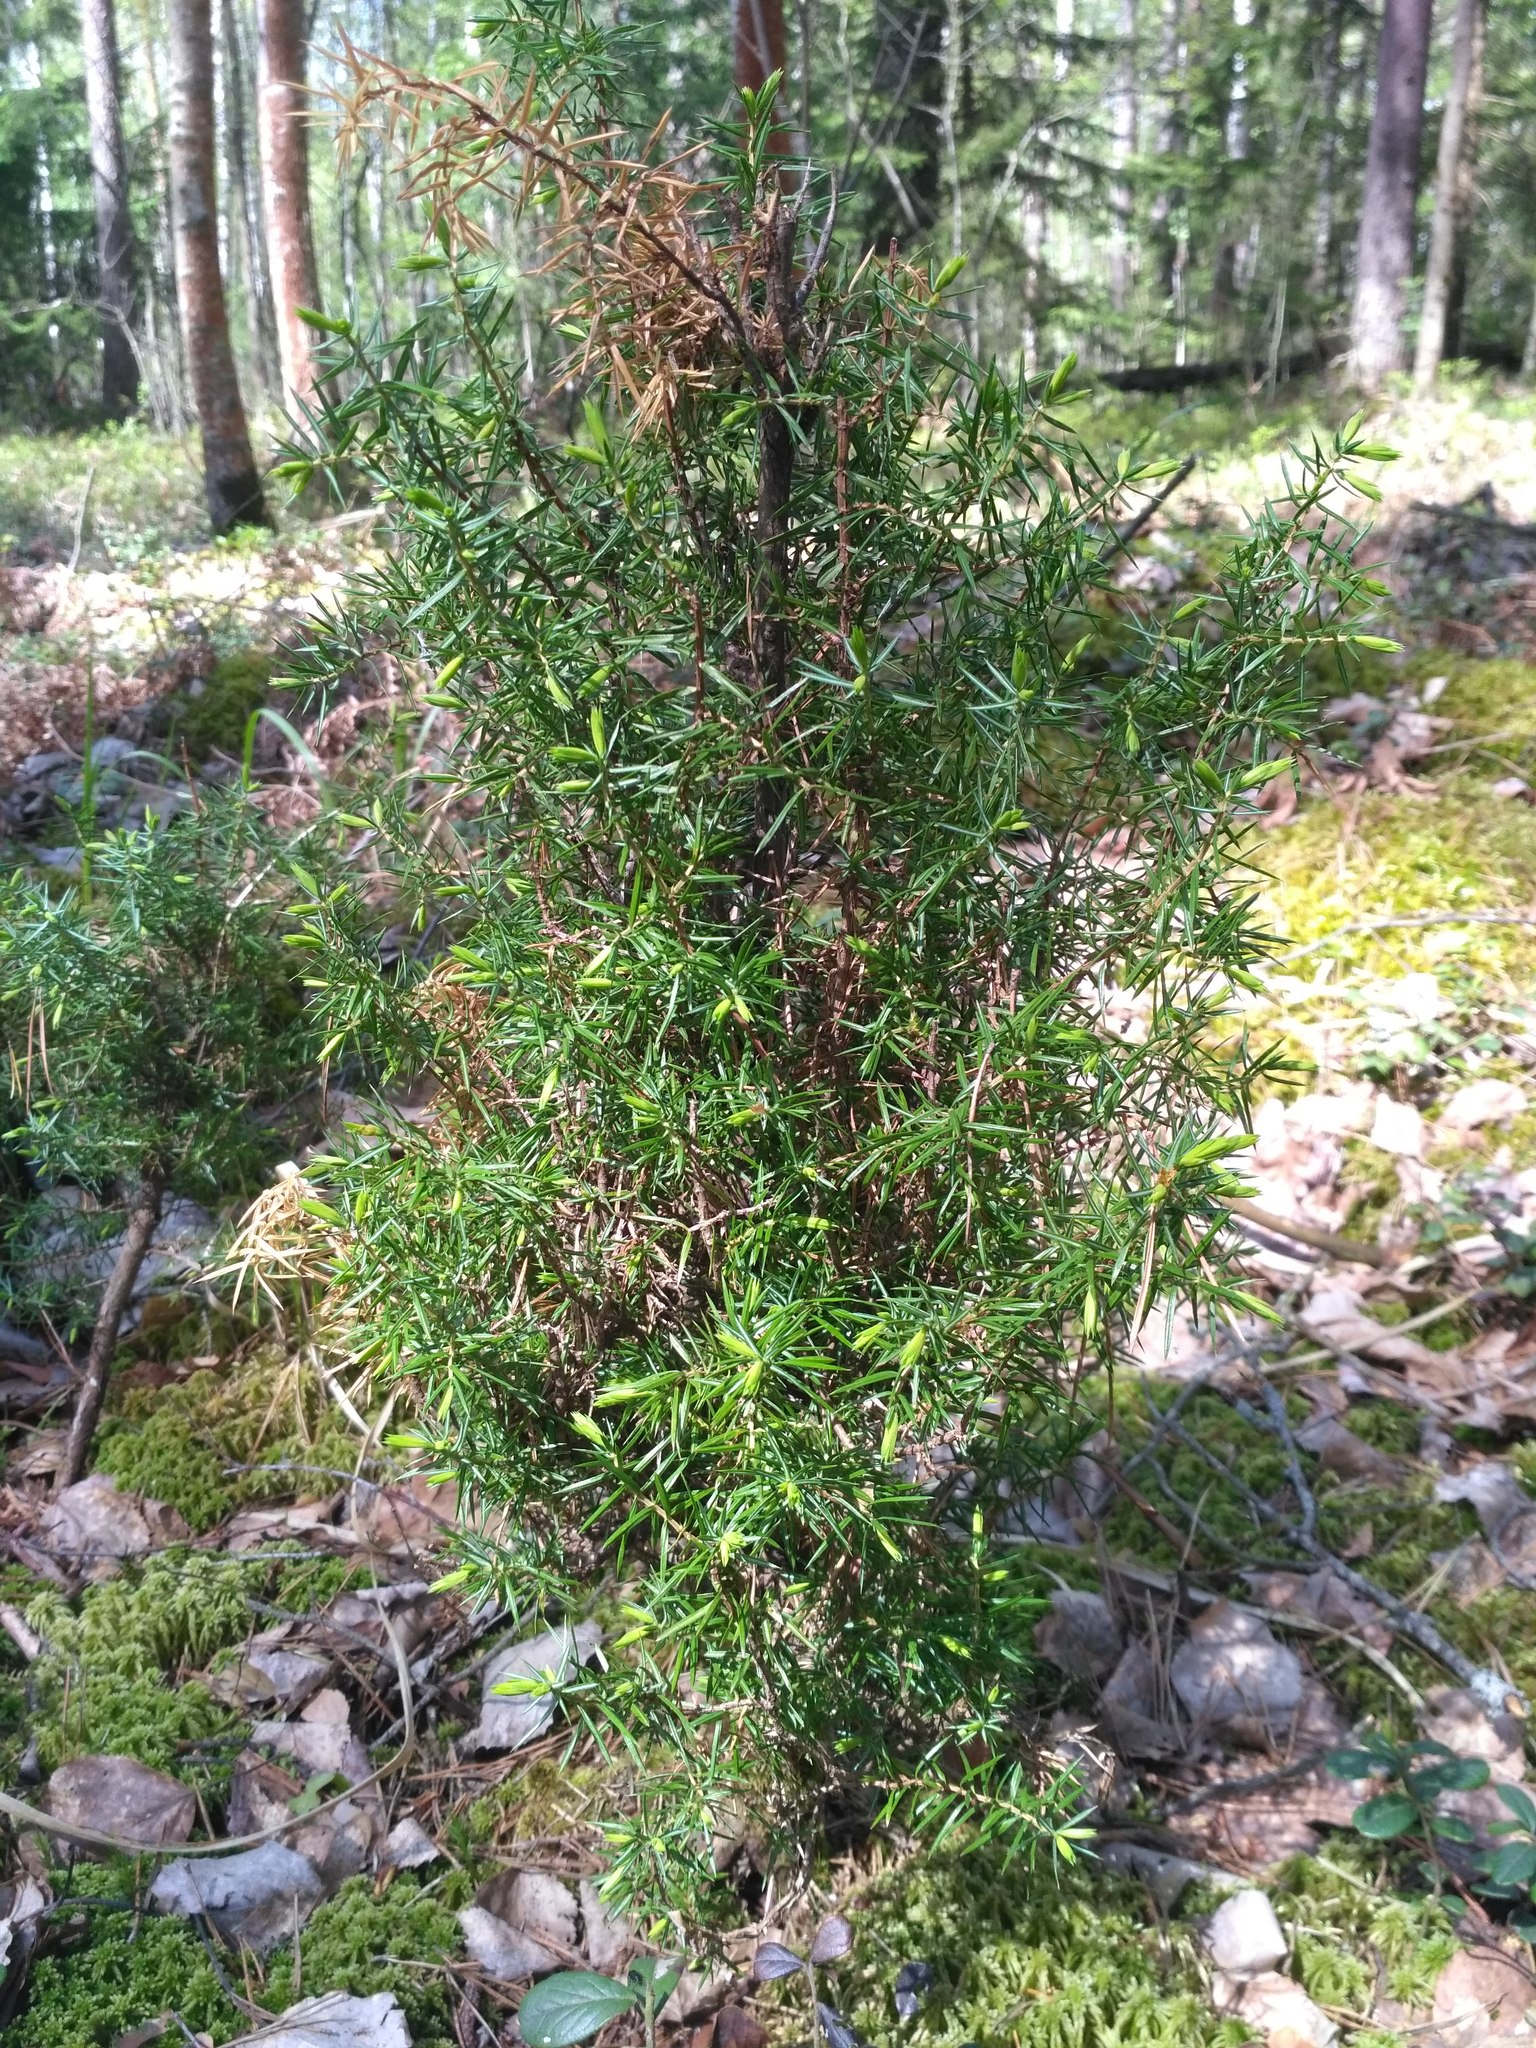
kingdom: Plantae
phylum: Tracheophyta
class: Pinopsida
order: Pinales
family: Cupressaceae
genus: Juniperus
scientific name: Juniperus communis
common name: Common juniper
